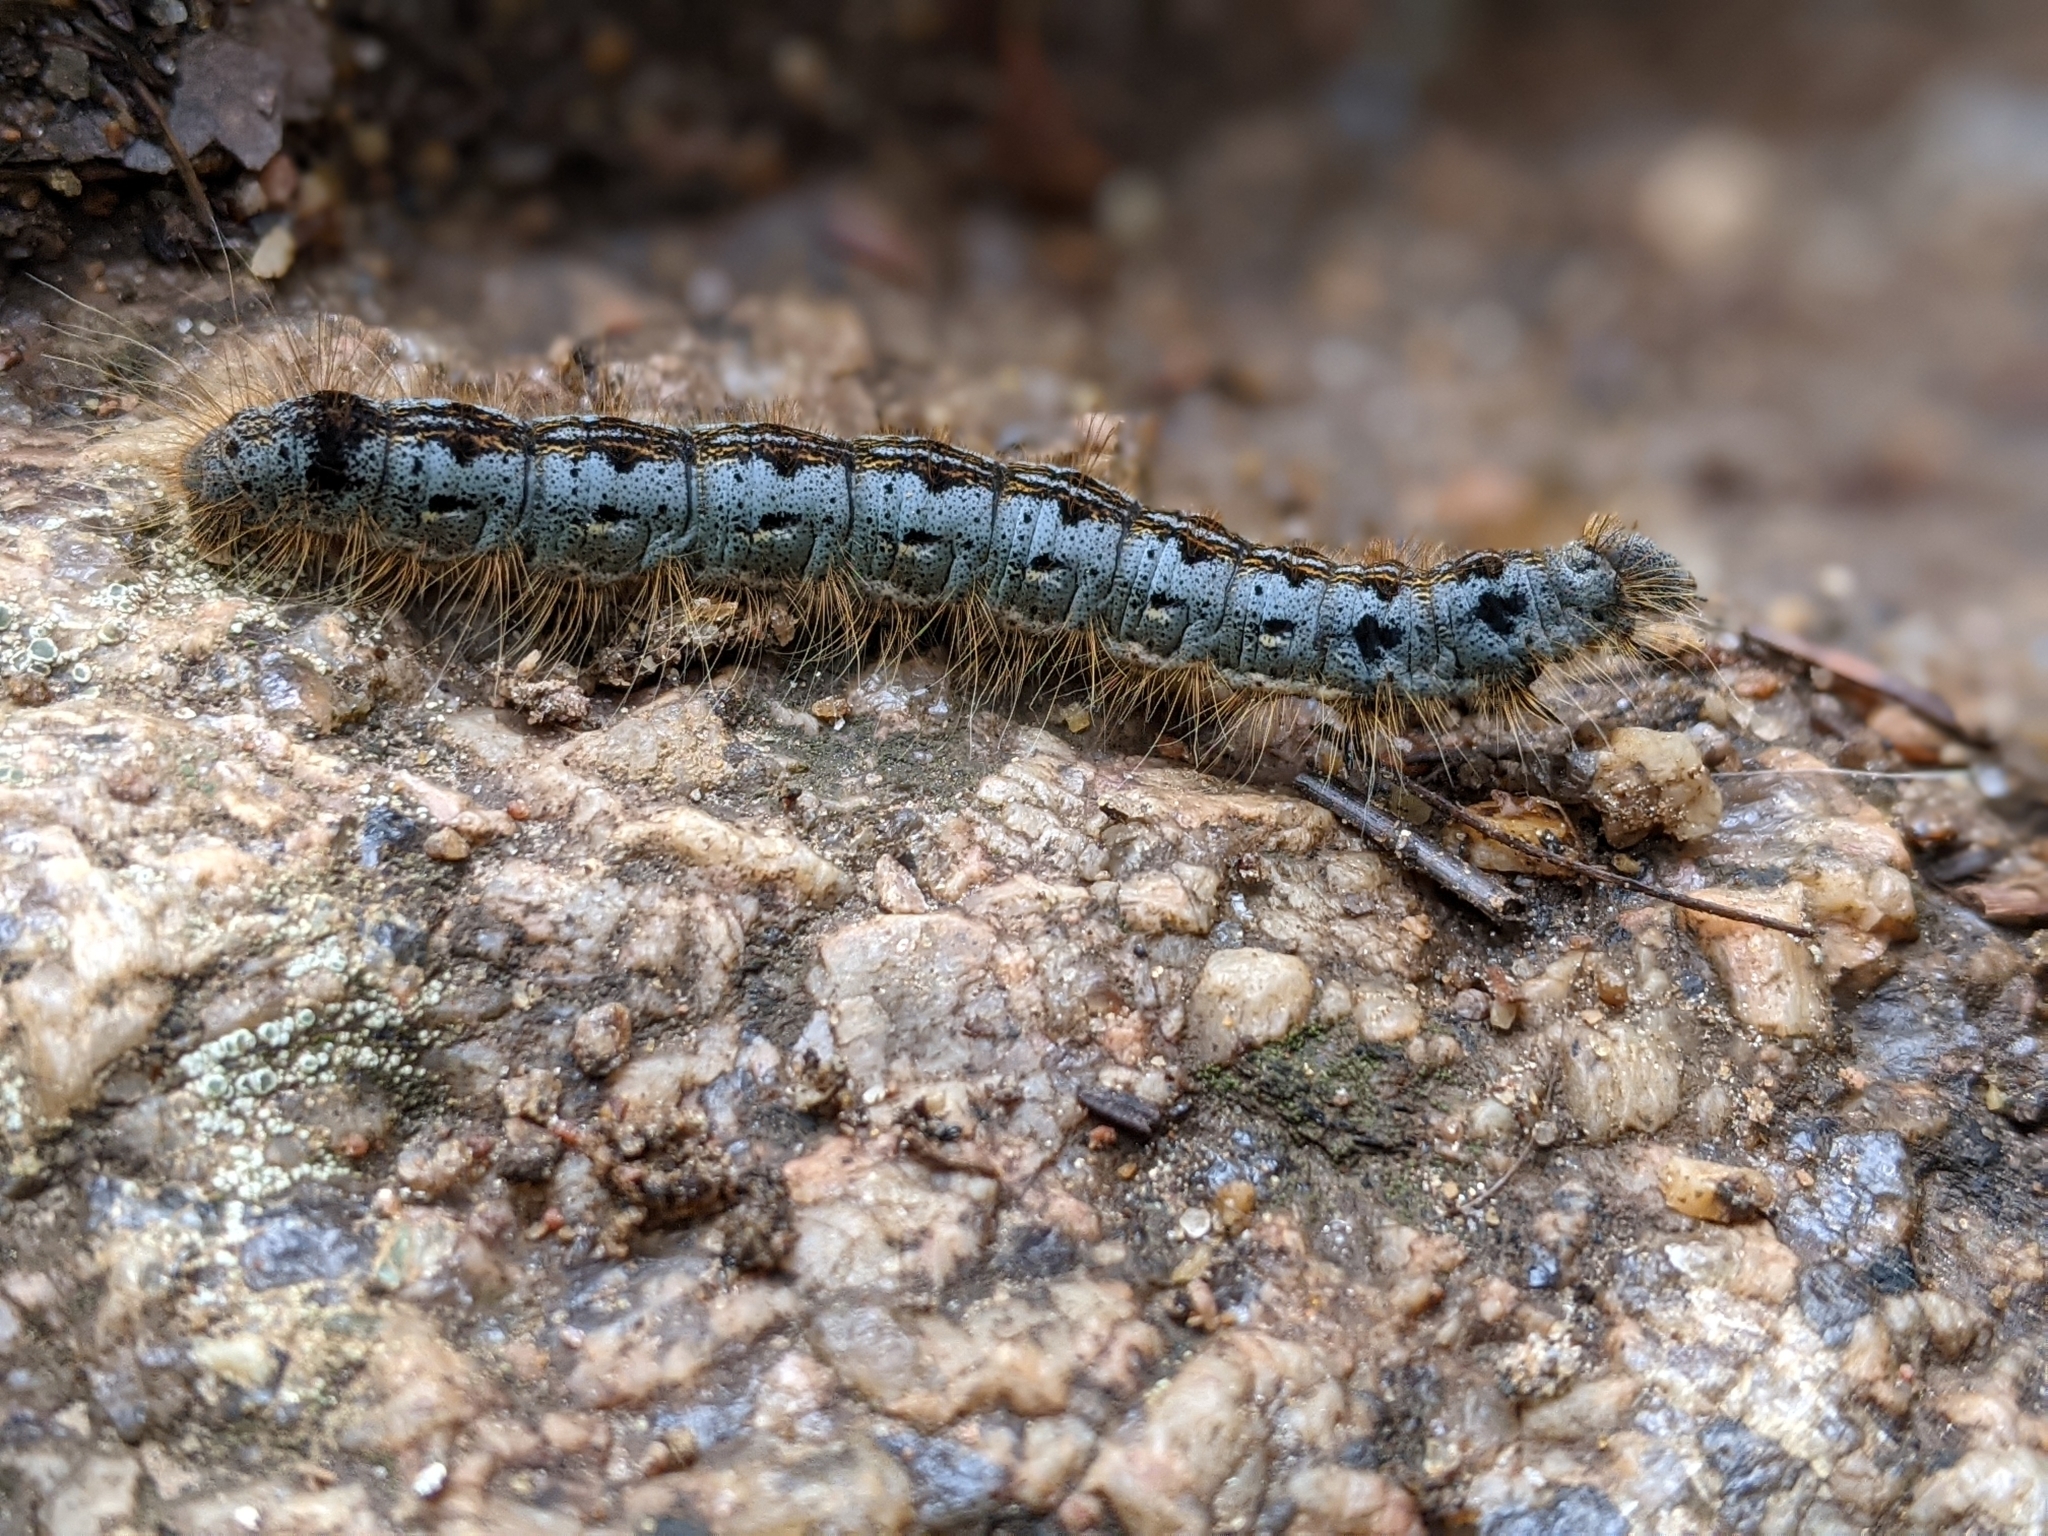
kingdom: Animalia
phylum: Arthropoda
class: Insecta
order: Lepidoptera
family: Lasiocampidae
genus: Malacosoma
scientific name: Malacosoma californica
